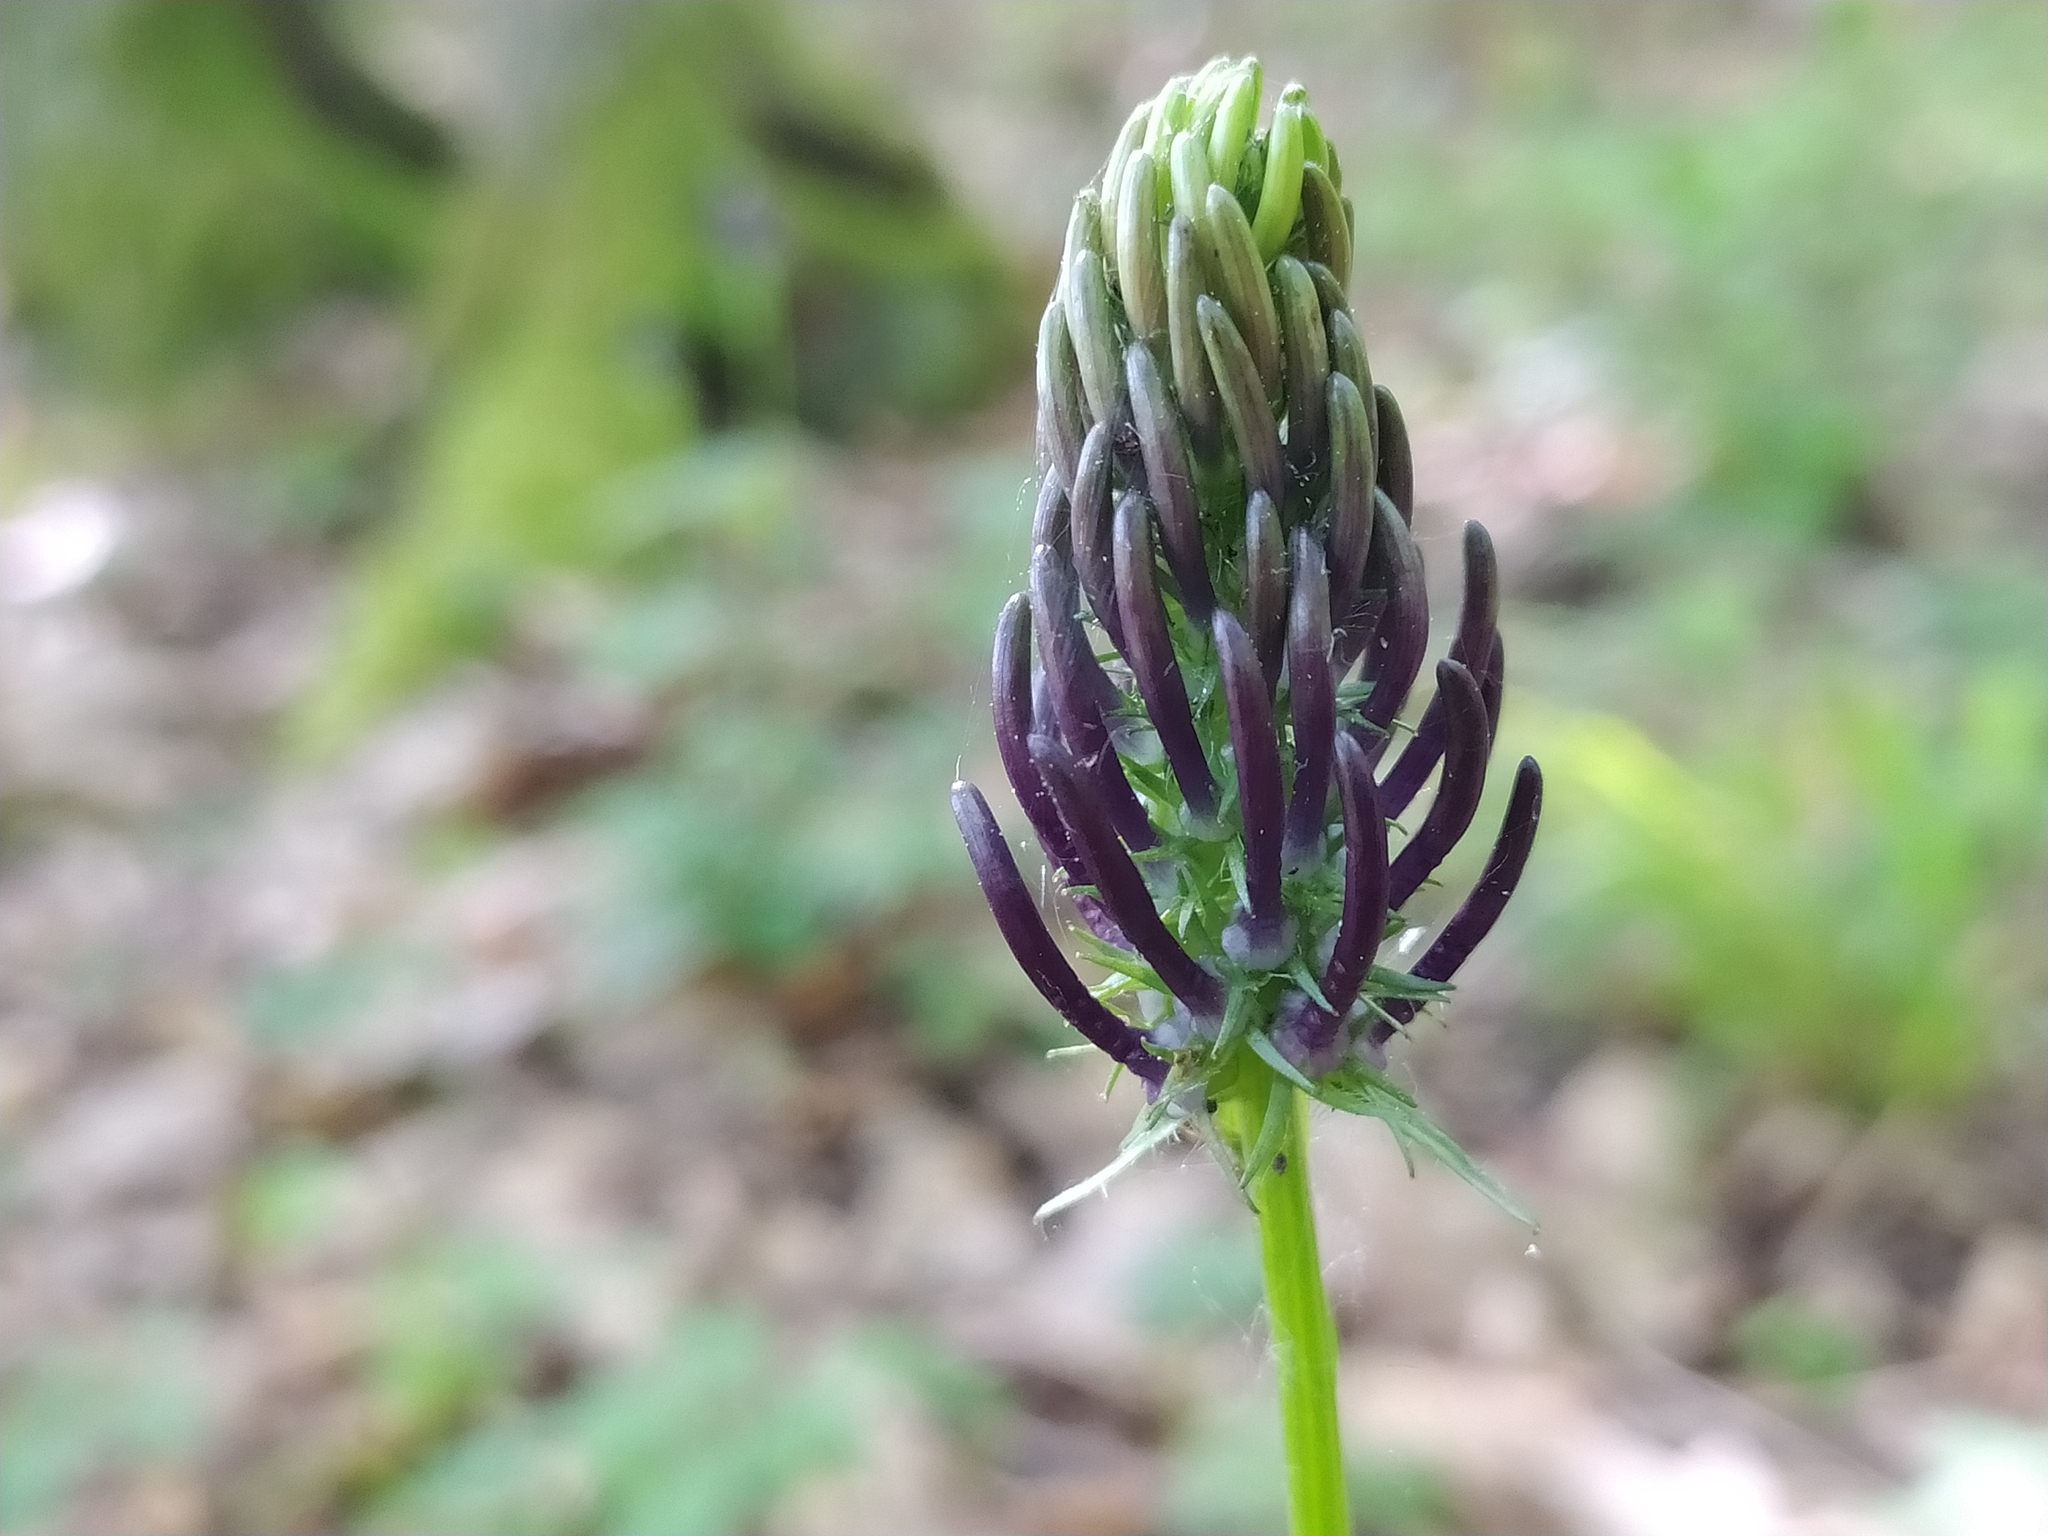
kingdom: Plantae
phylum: Tracheophyta
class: Magnoliopsida
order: Asterales
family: Campanulaceae
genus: Phyteuma
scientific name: Phyteuma nigrum
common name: Black rampion
